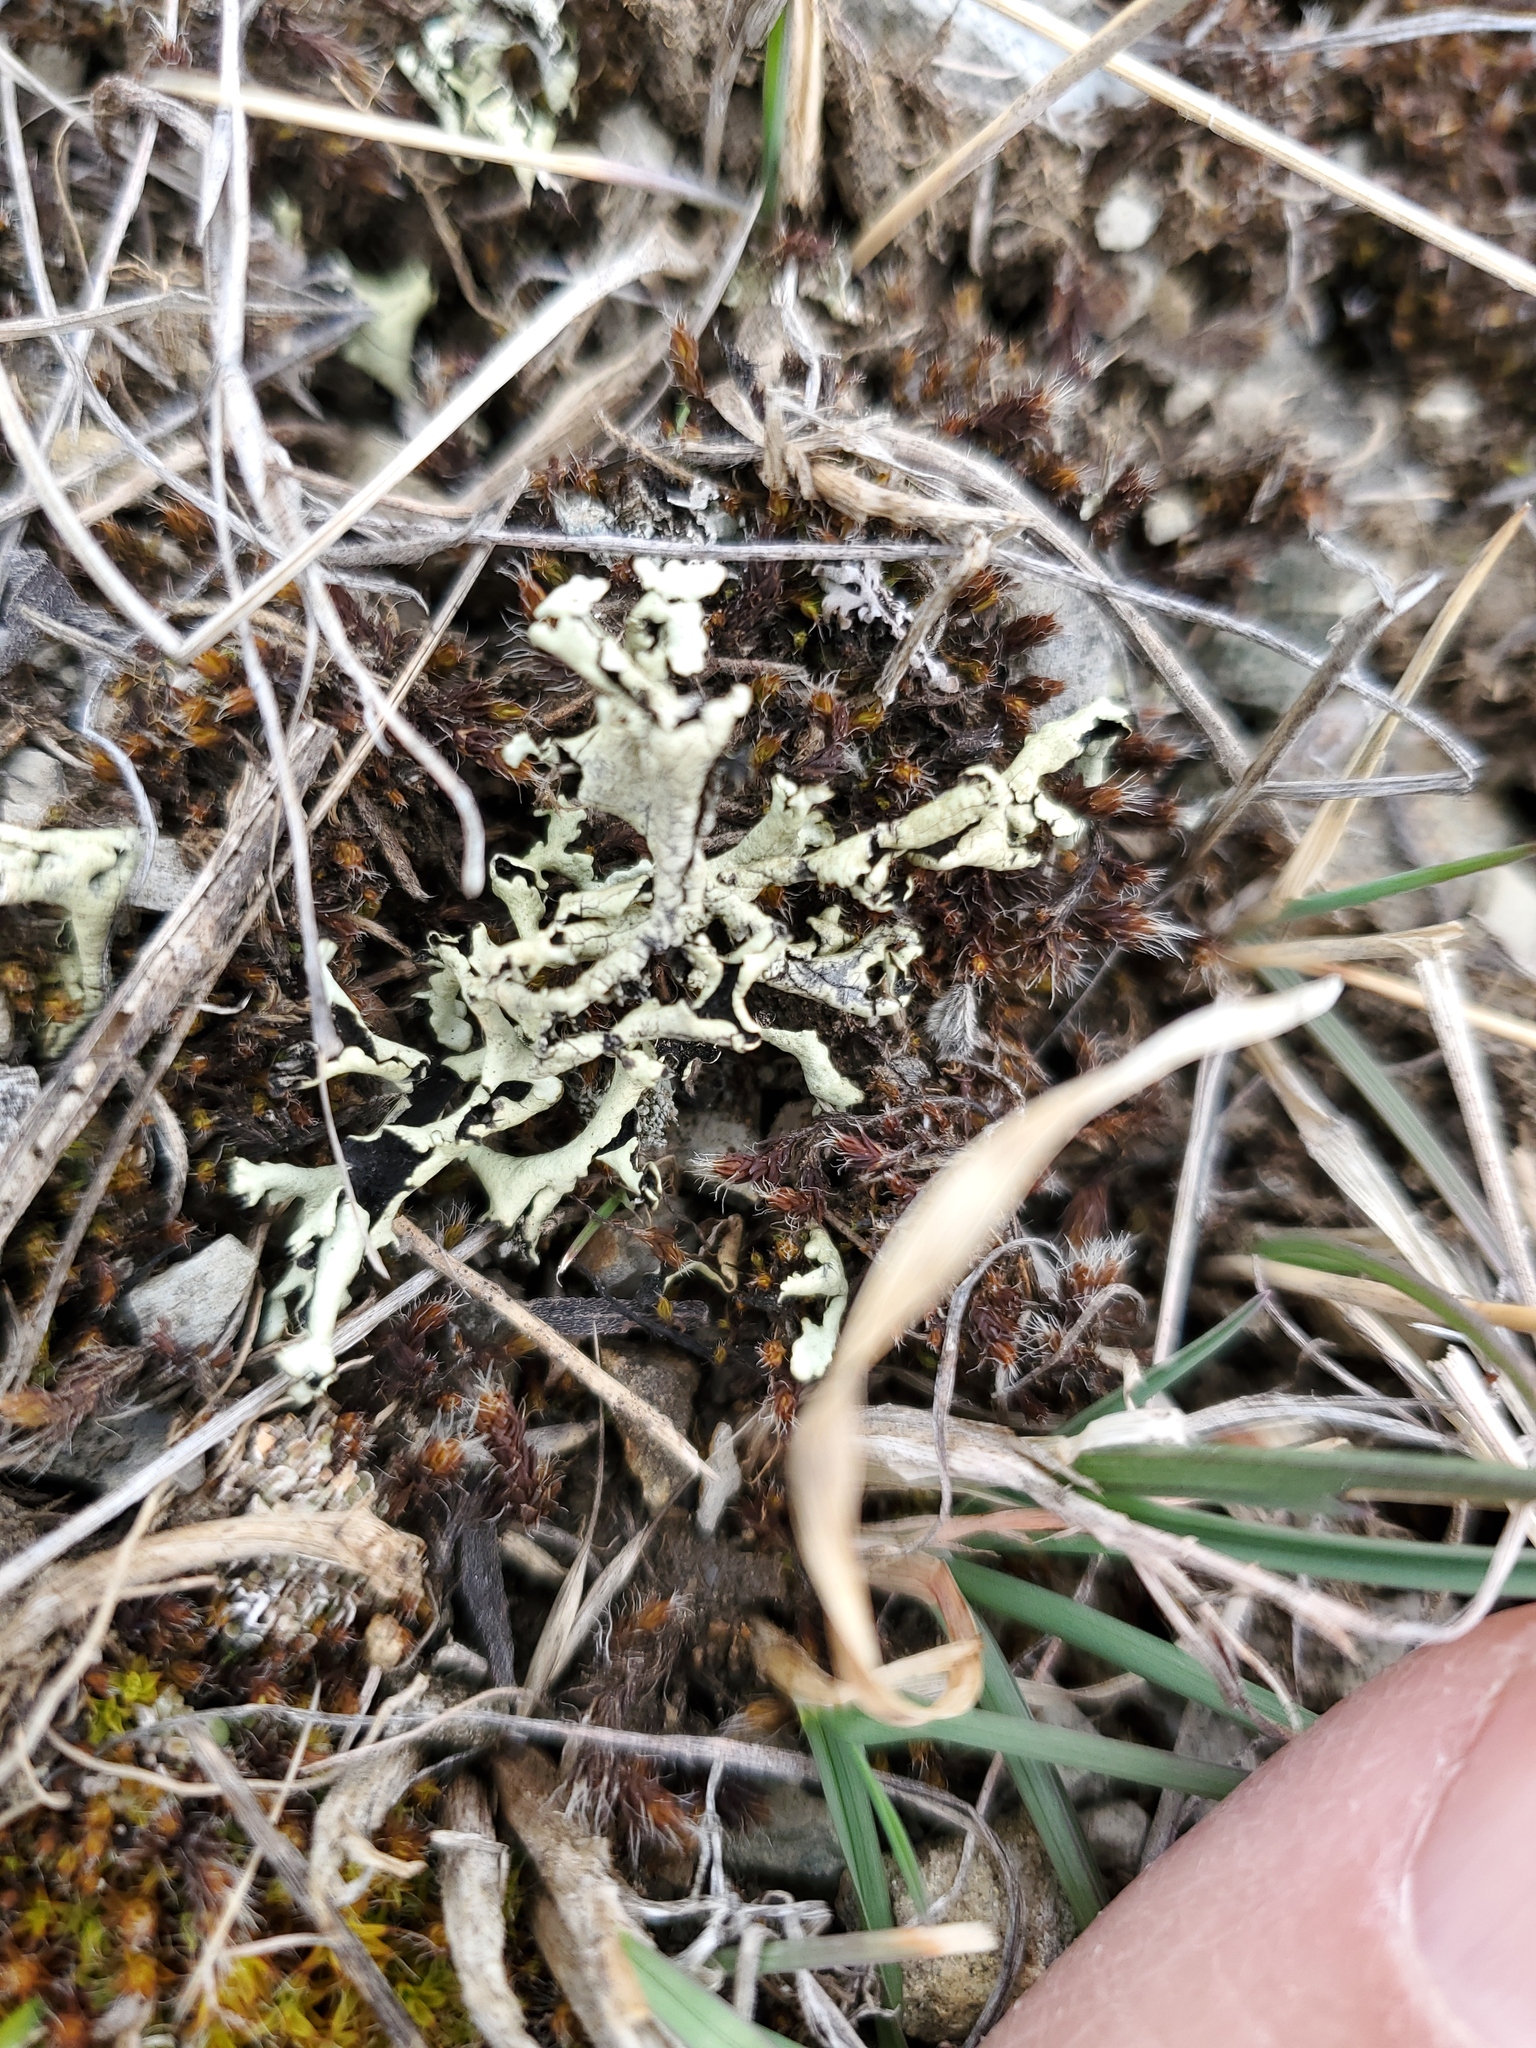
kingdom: Fungi
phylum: Ascomycota
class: Lecanoromycetes
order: Lecanorales
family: Parmeliaceae
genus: Xanthoparmelia
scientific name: Xanthoparmelia chlorochroa
